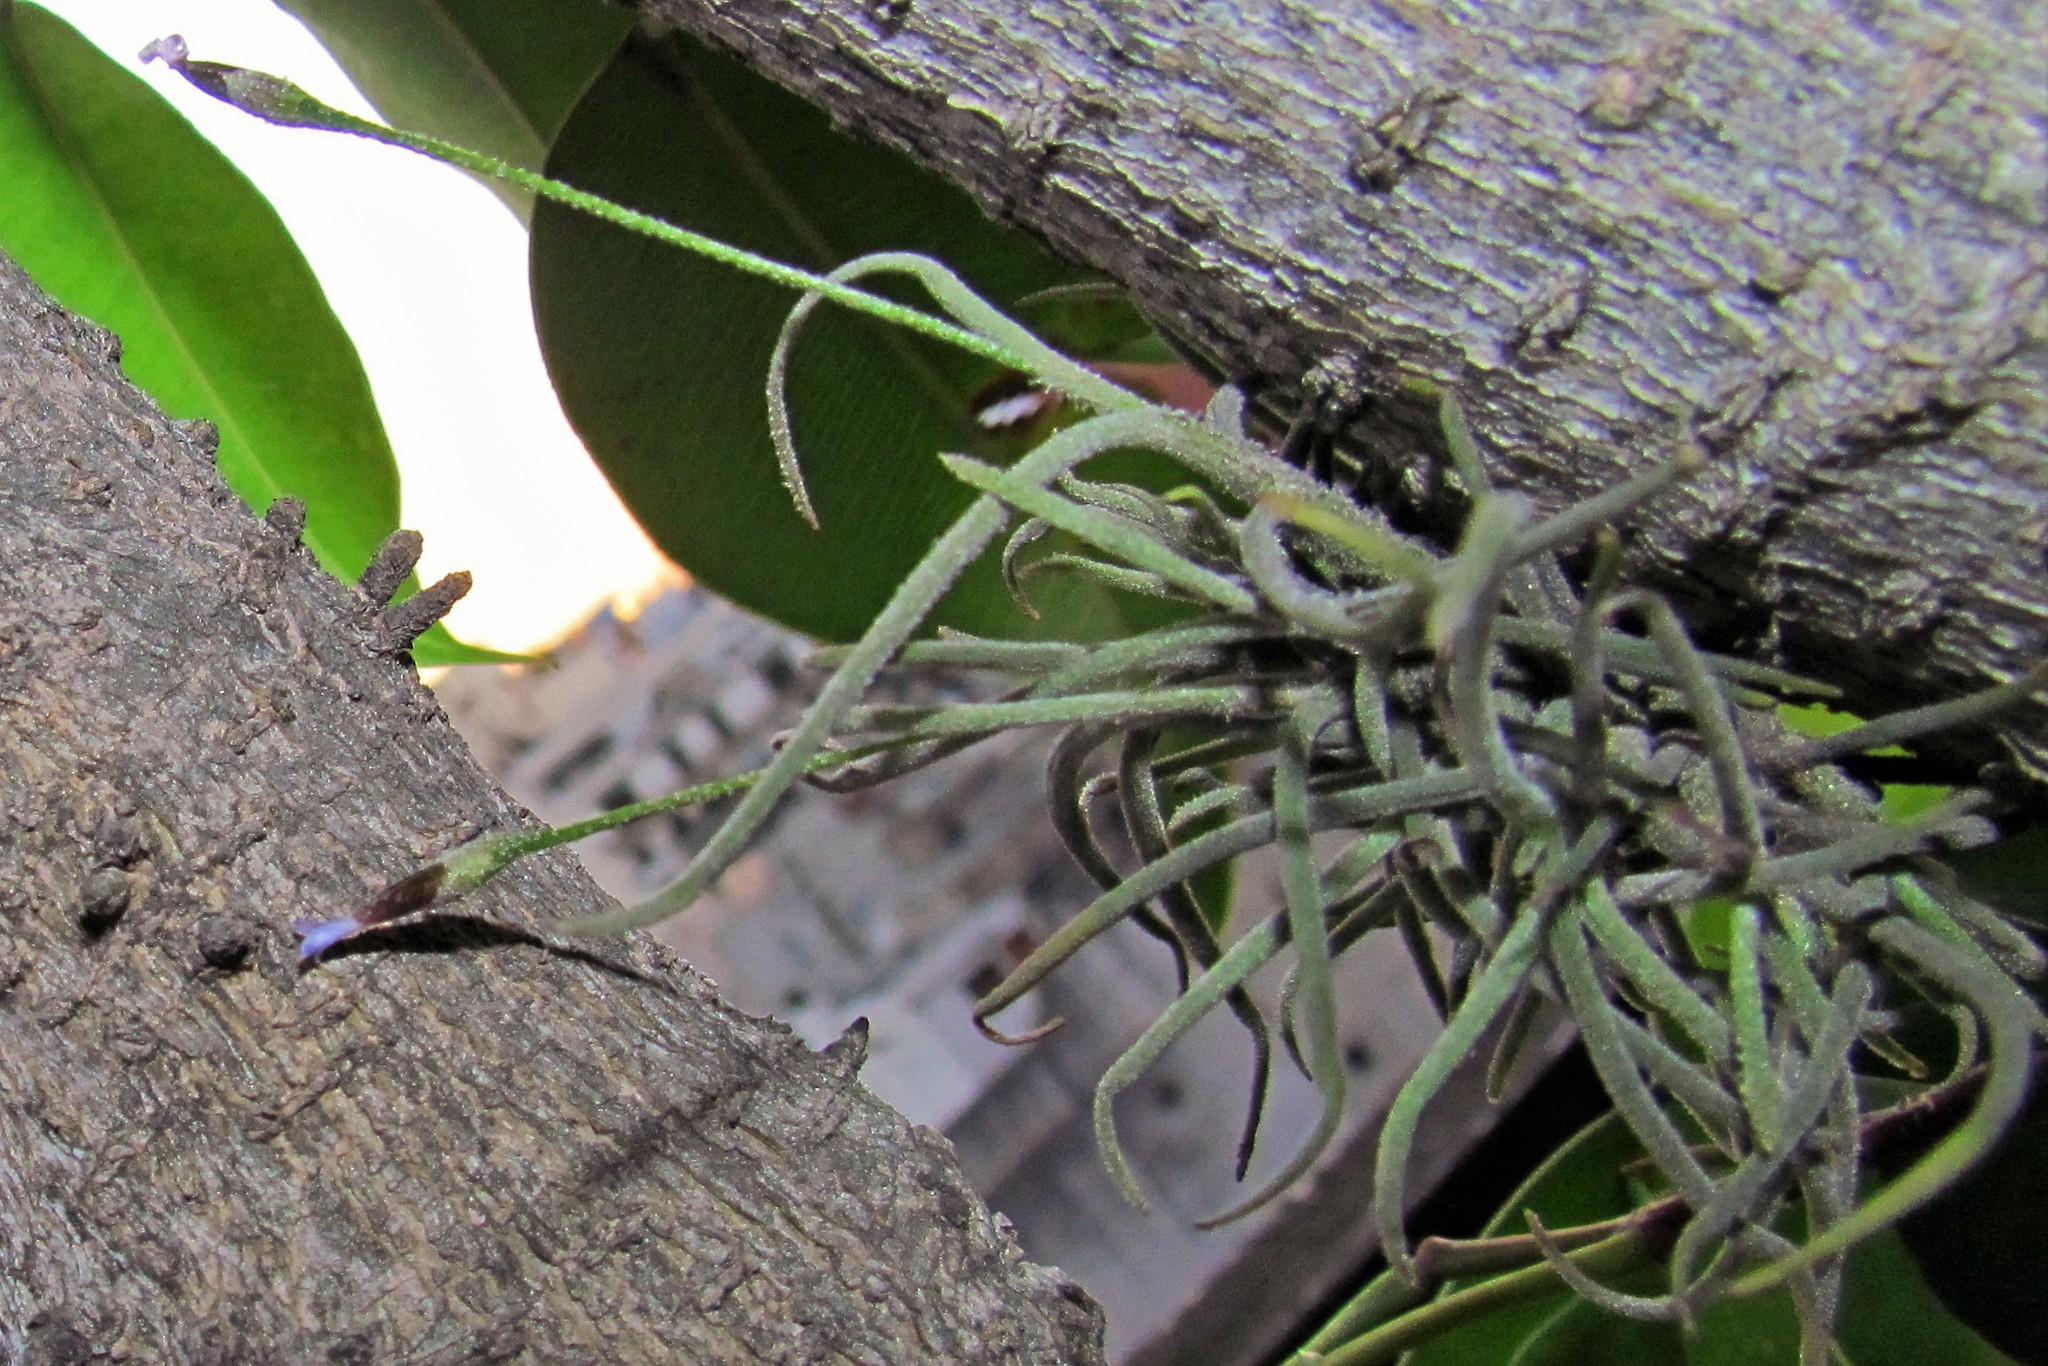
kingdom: Plantae
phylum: Tracheophyta
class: Liliopsida
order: Poales
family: Bromeliaceae
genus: Tillandsia
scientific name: Tillandsia recurvata
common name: Small ballmoss
